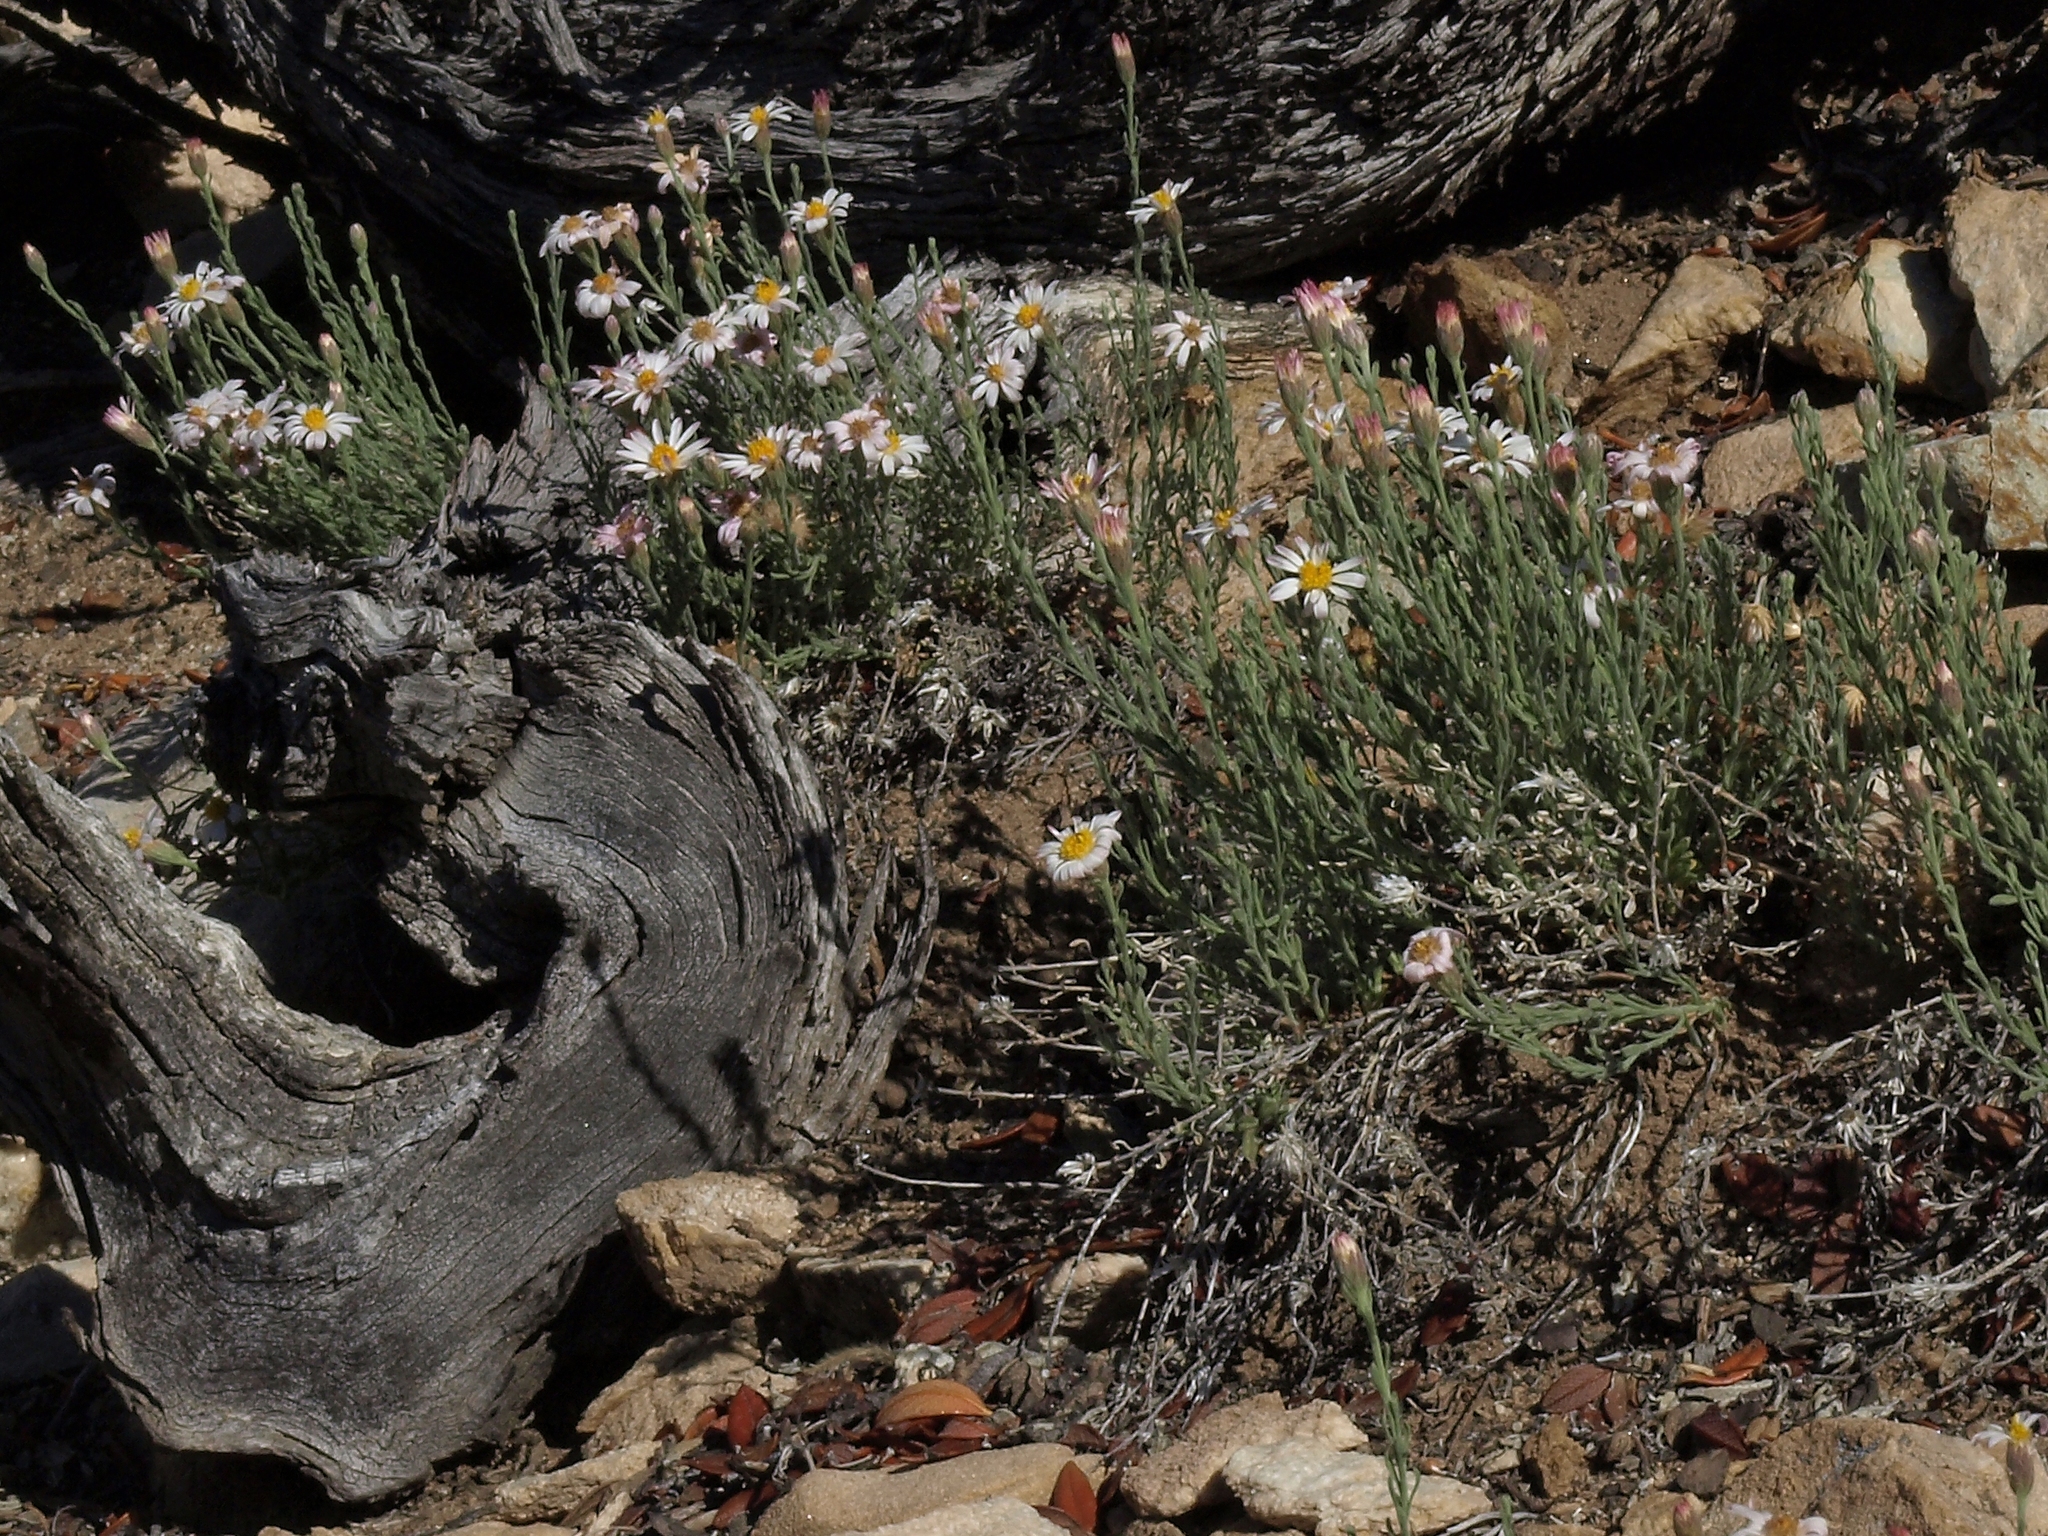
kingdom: Plantae
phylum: Tracheophyta
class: Magnoliopsida
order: Asterales
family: Asteraceae
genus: Chaetopappa
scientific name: Chaetopappa ericoides
